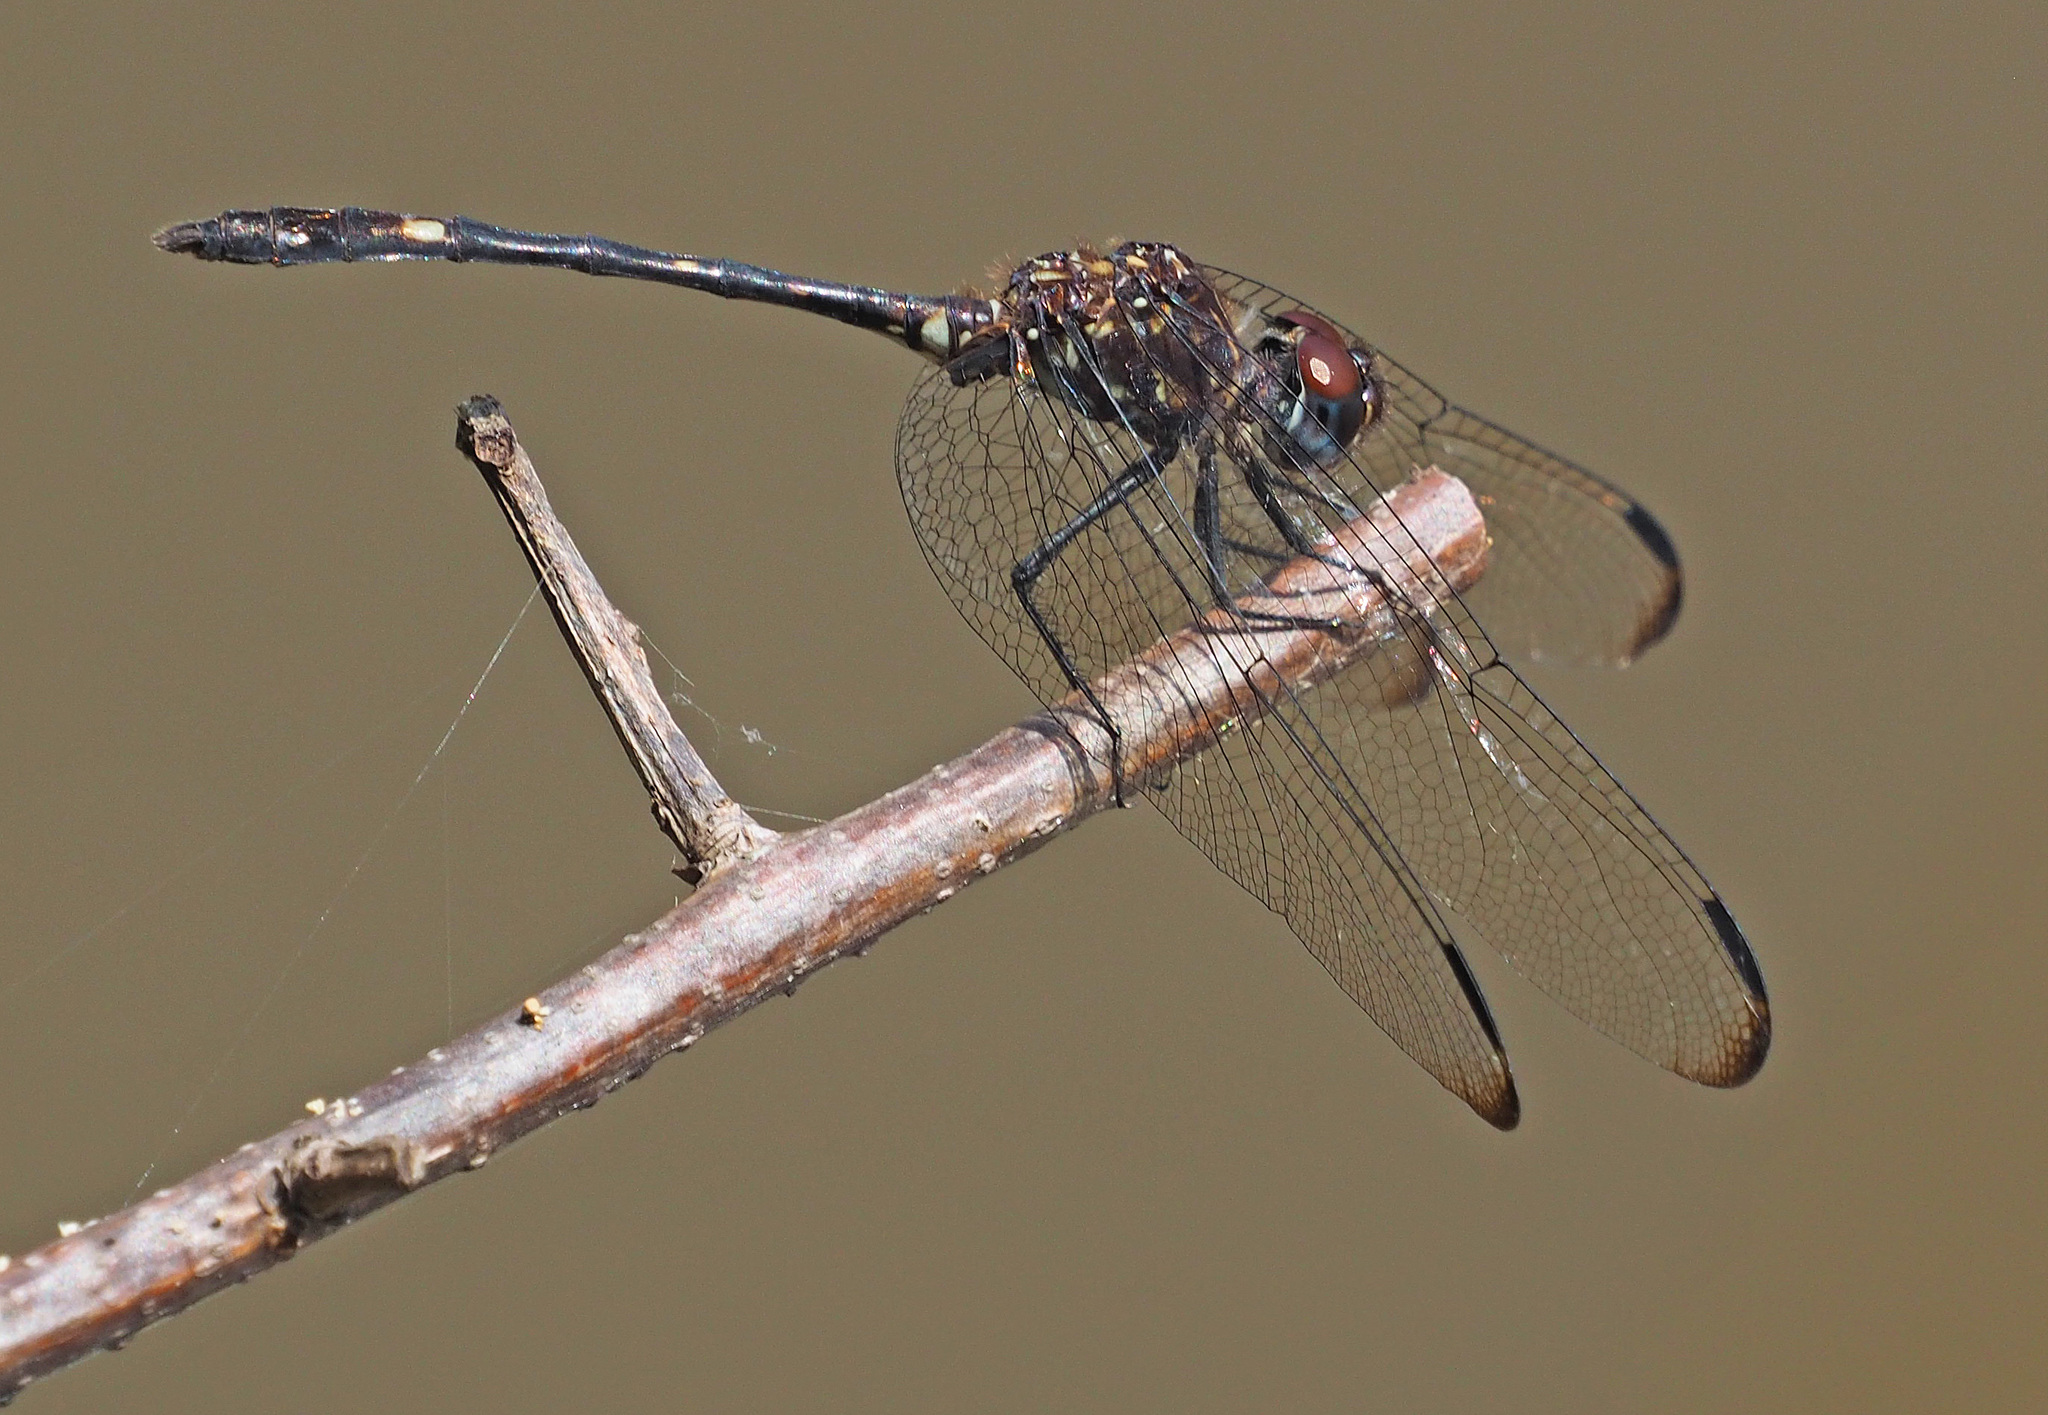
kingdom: Animalia
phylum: Arthropoda
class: Insecta
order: Odonata
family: Libellulidae
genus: Dythemis
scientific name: Dythemis velox
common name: Swift setwing
